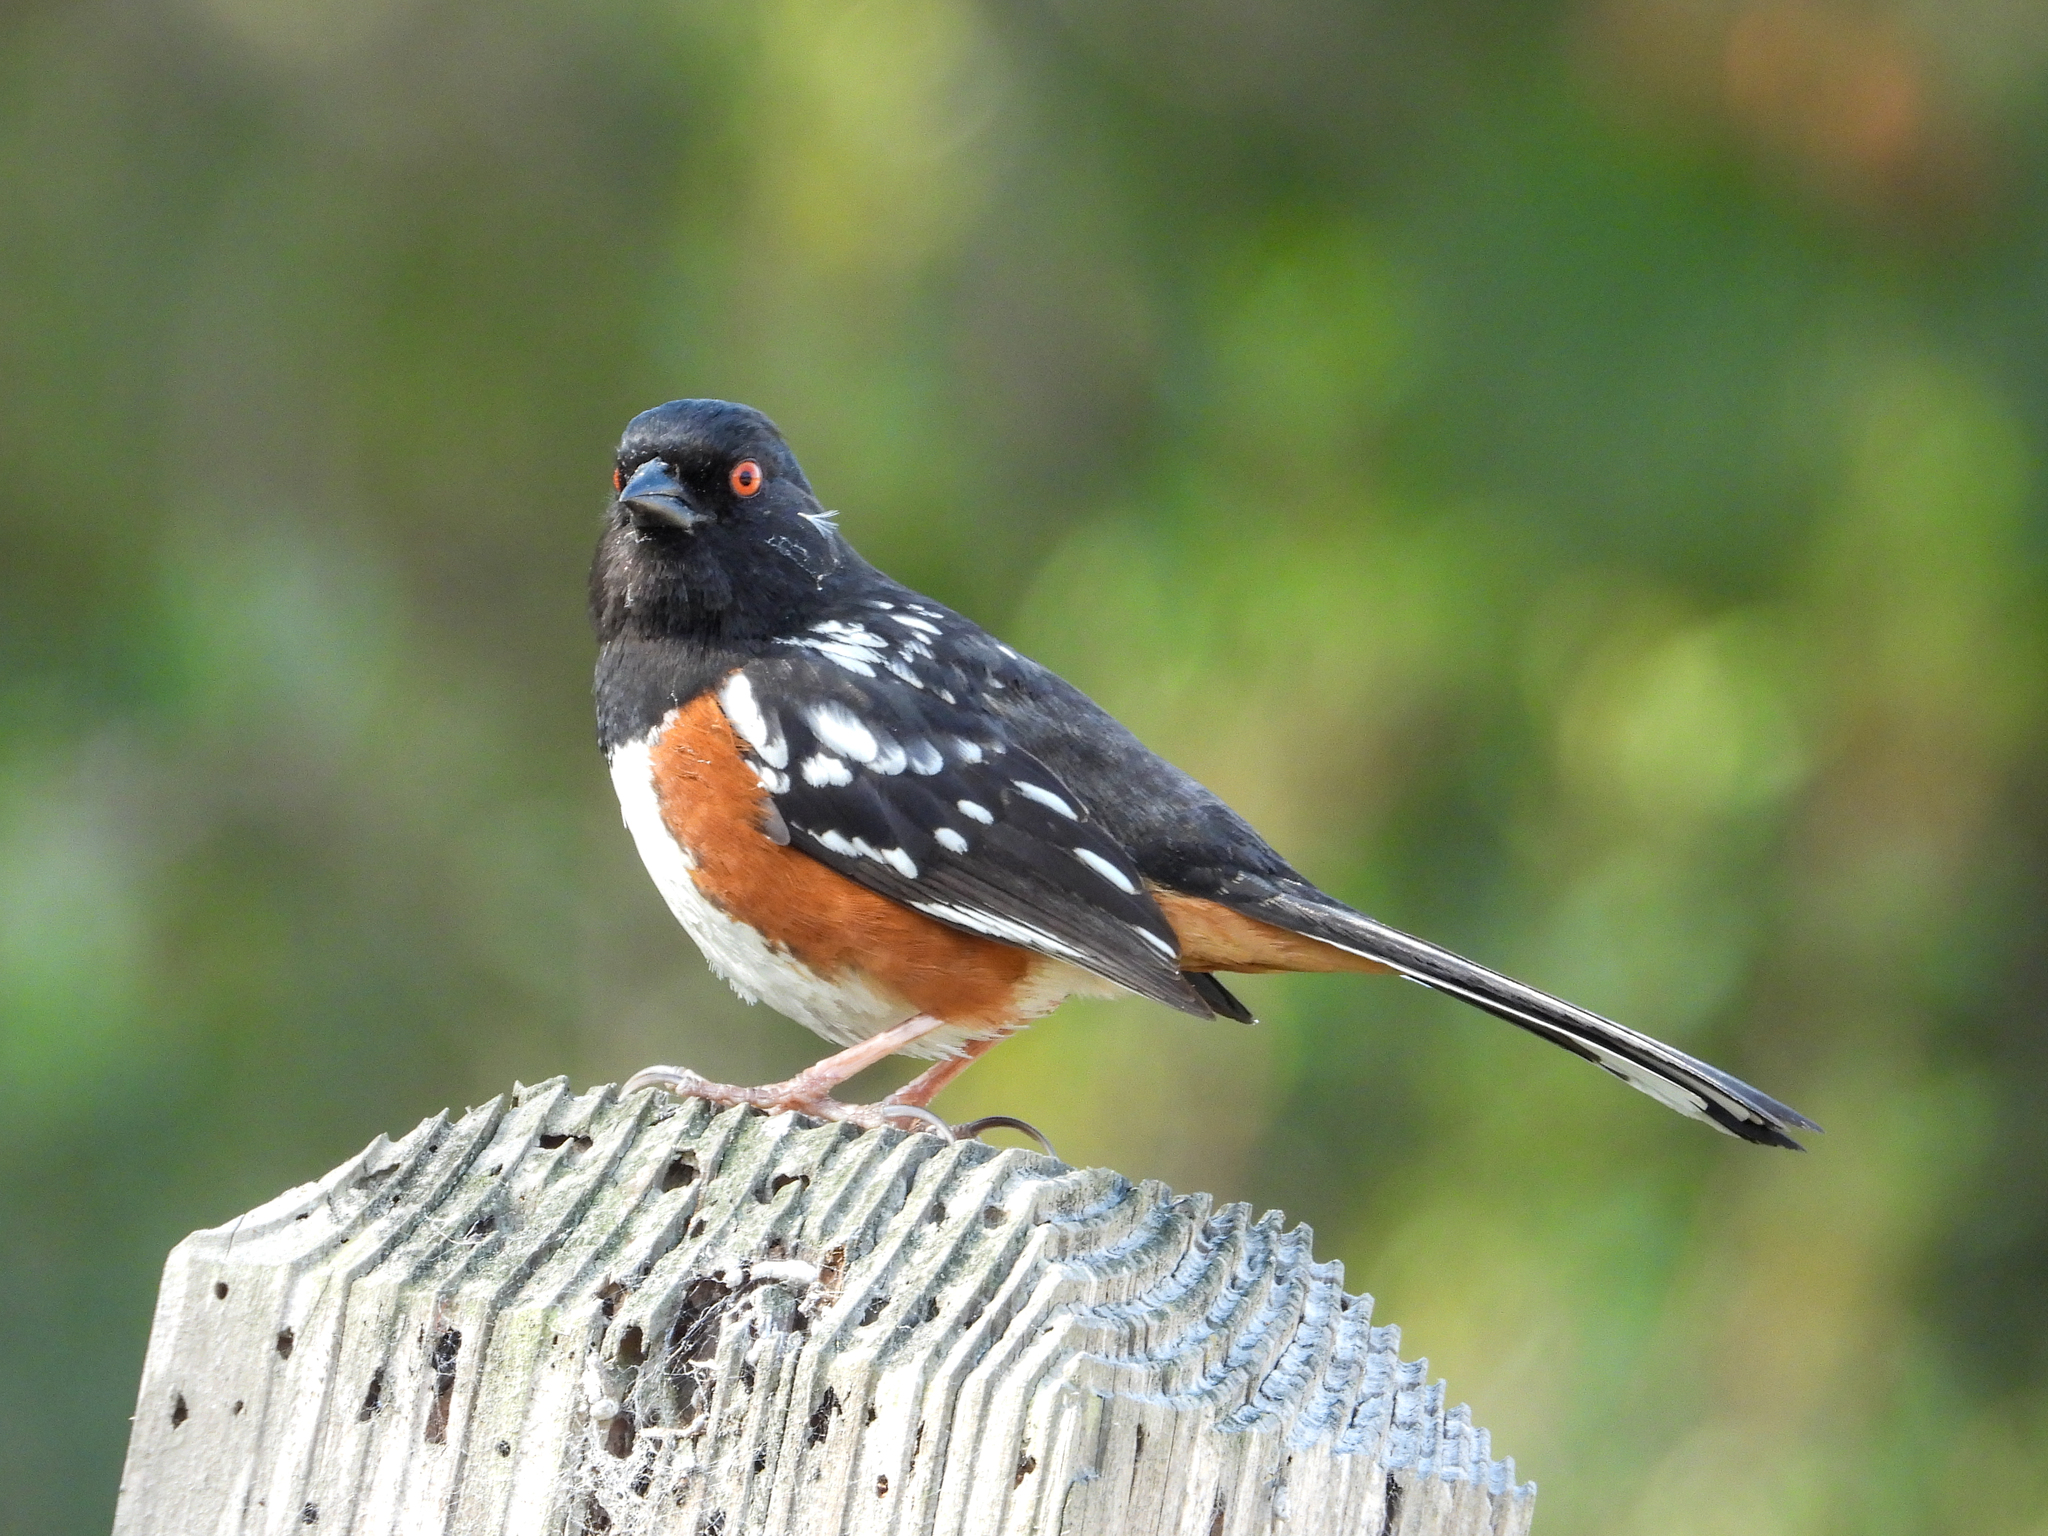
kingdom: Animalia
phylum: Chordata
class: Aves
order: Passeriformes
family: Passerellidae
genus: Pipilo
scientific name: Pipilo maculatus
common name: Spotted towhee
